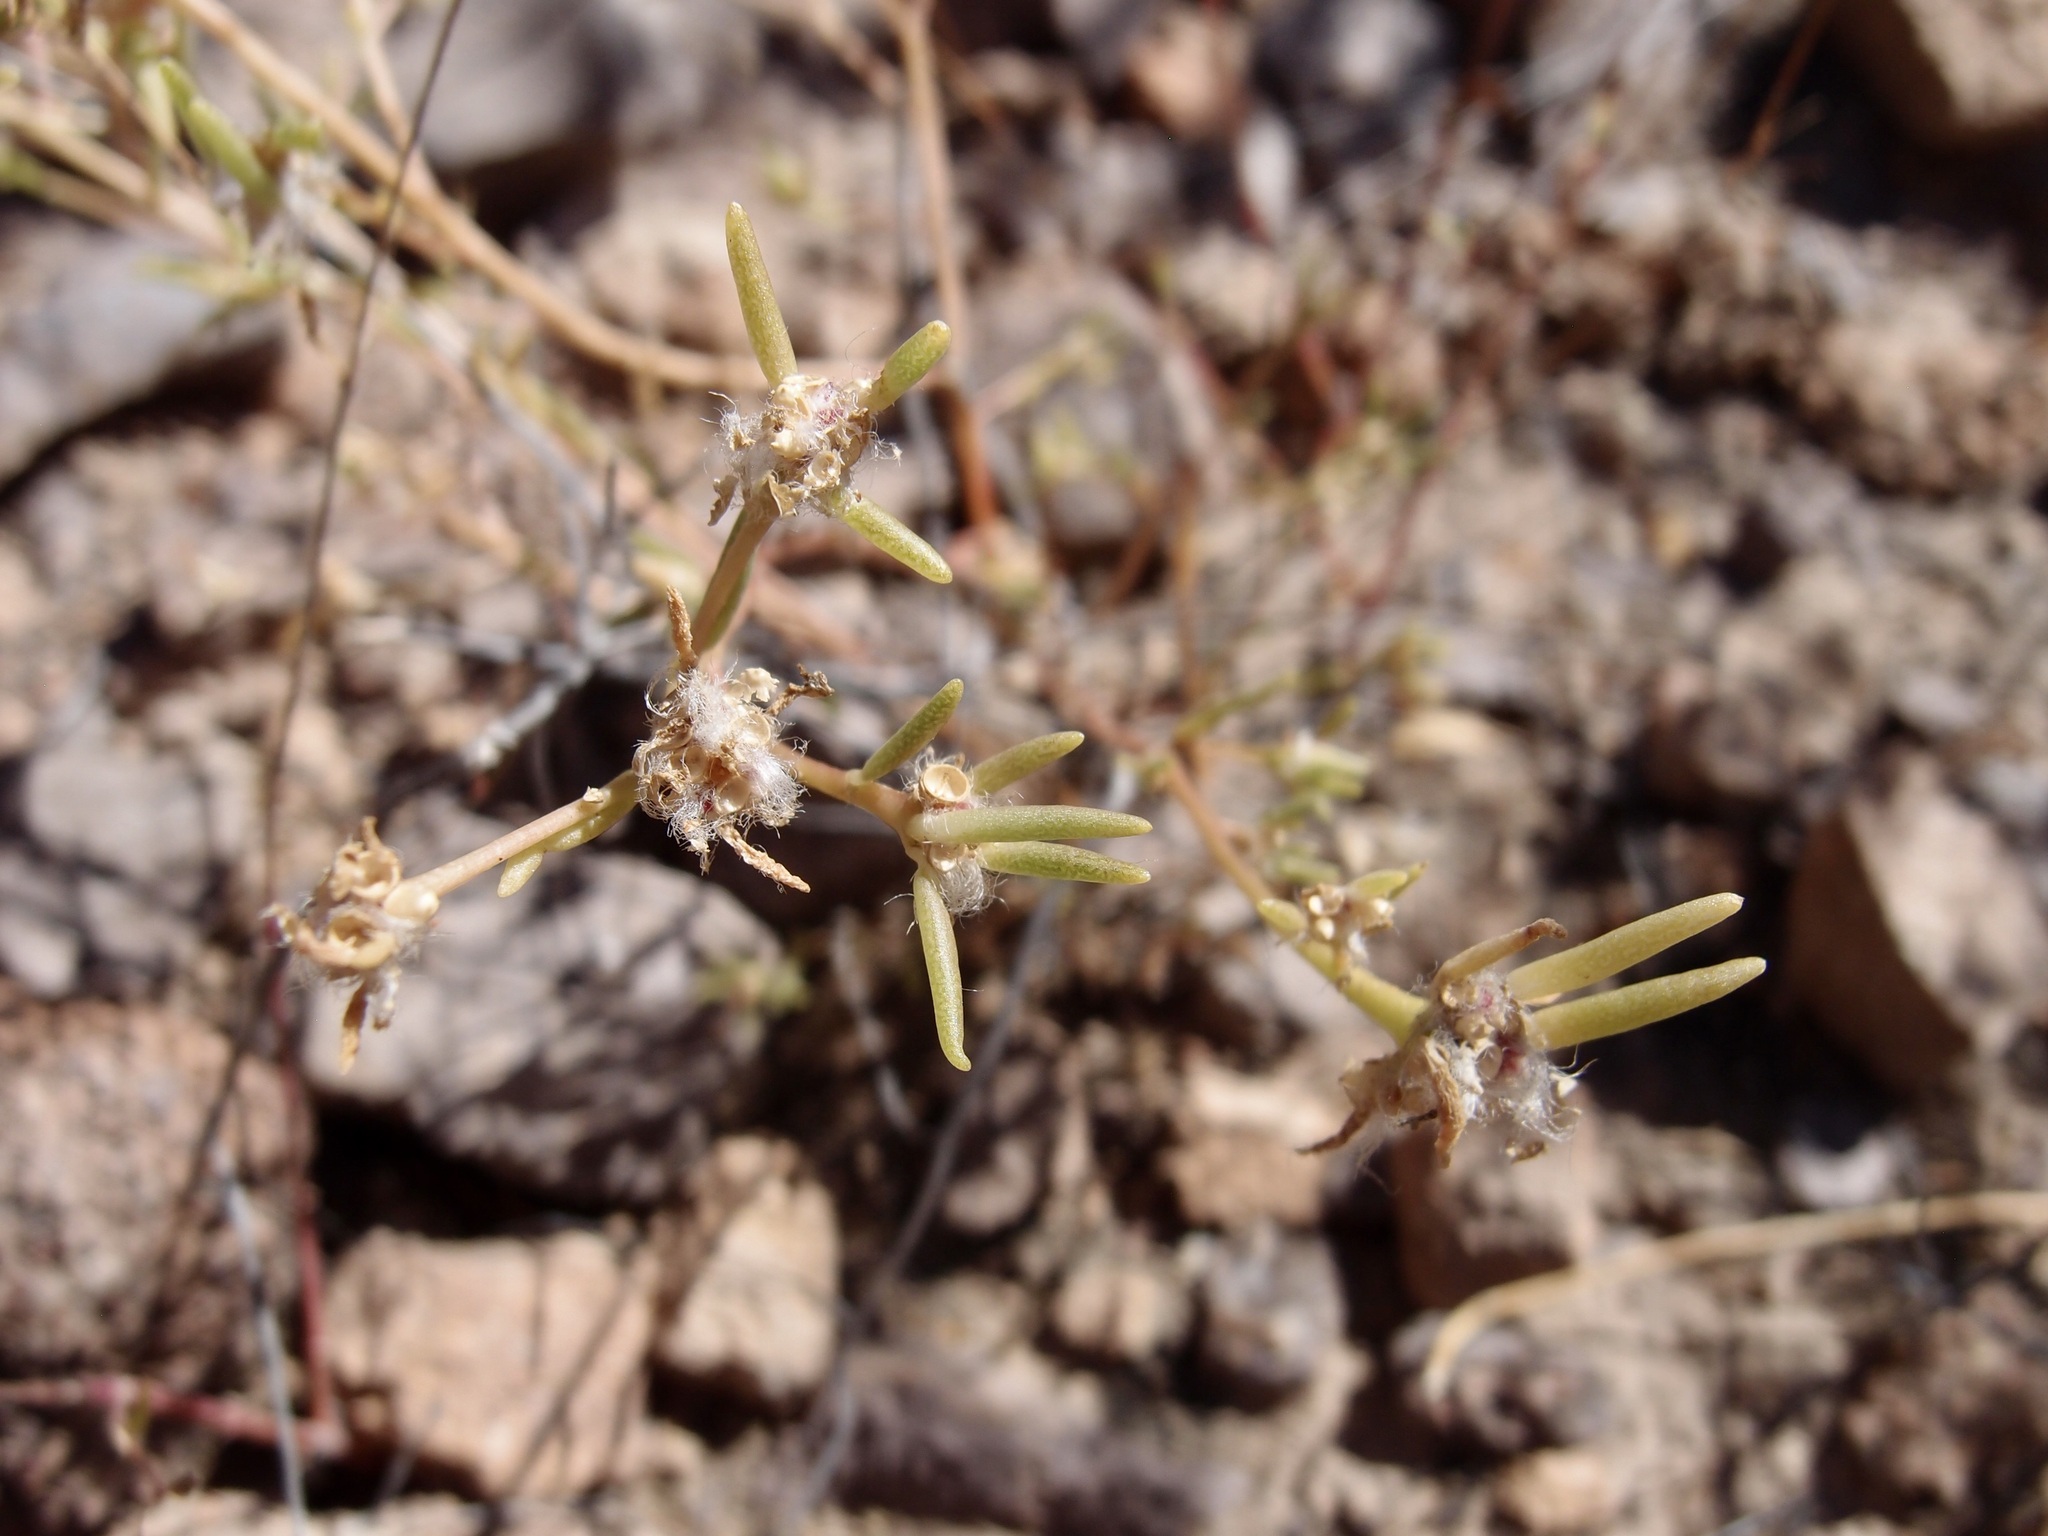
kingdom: Plantae
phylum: Tracheophyta
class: Magnoliopsida
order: Caryophyllales
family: Portulacaceae
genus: Portulaca
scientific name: Portulaca suffrutescens
